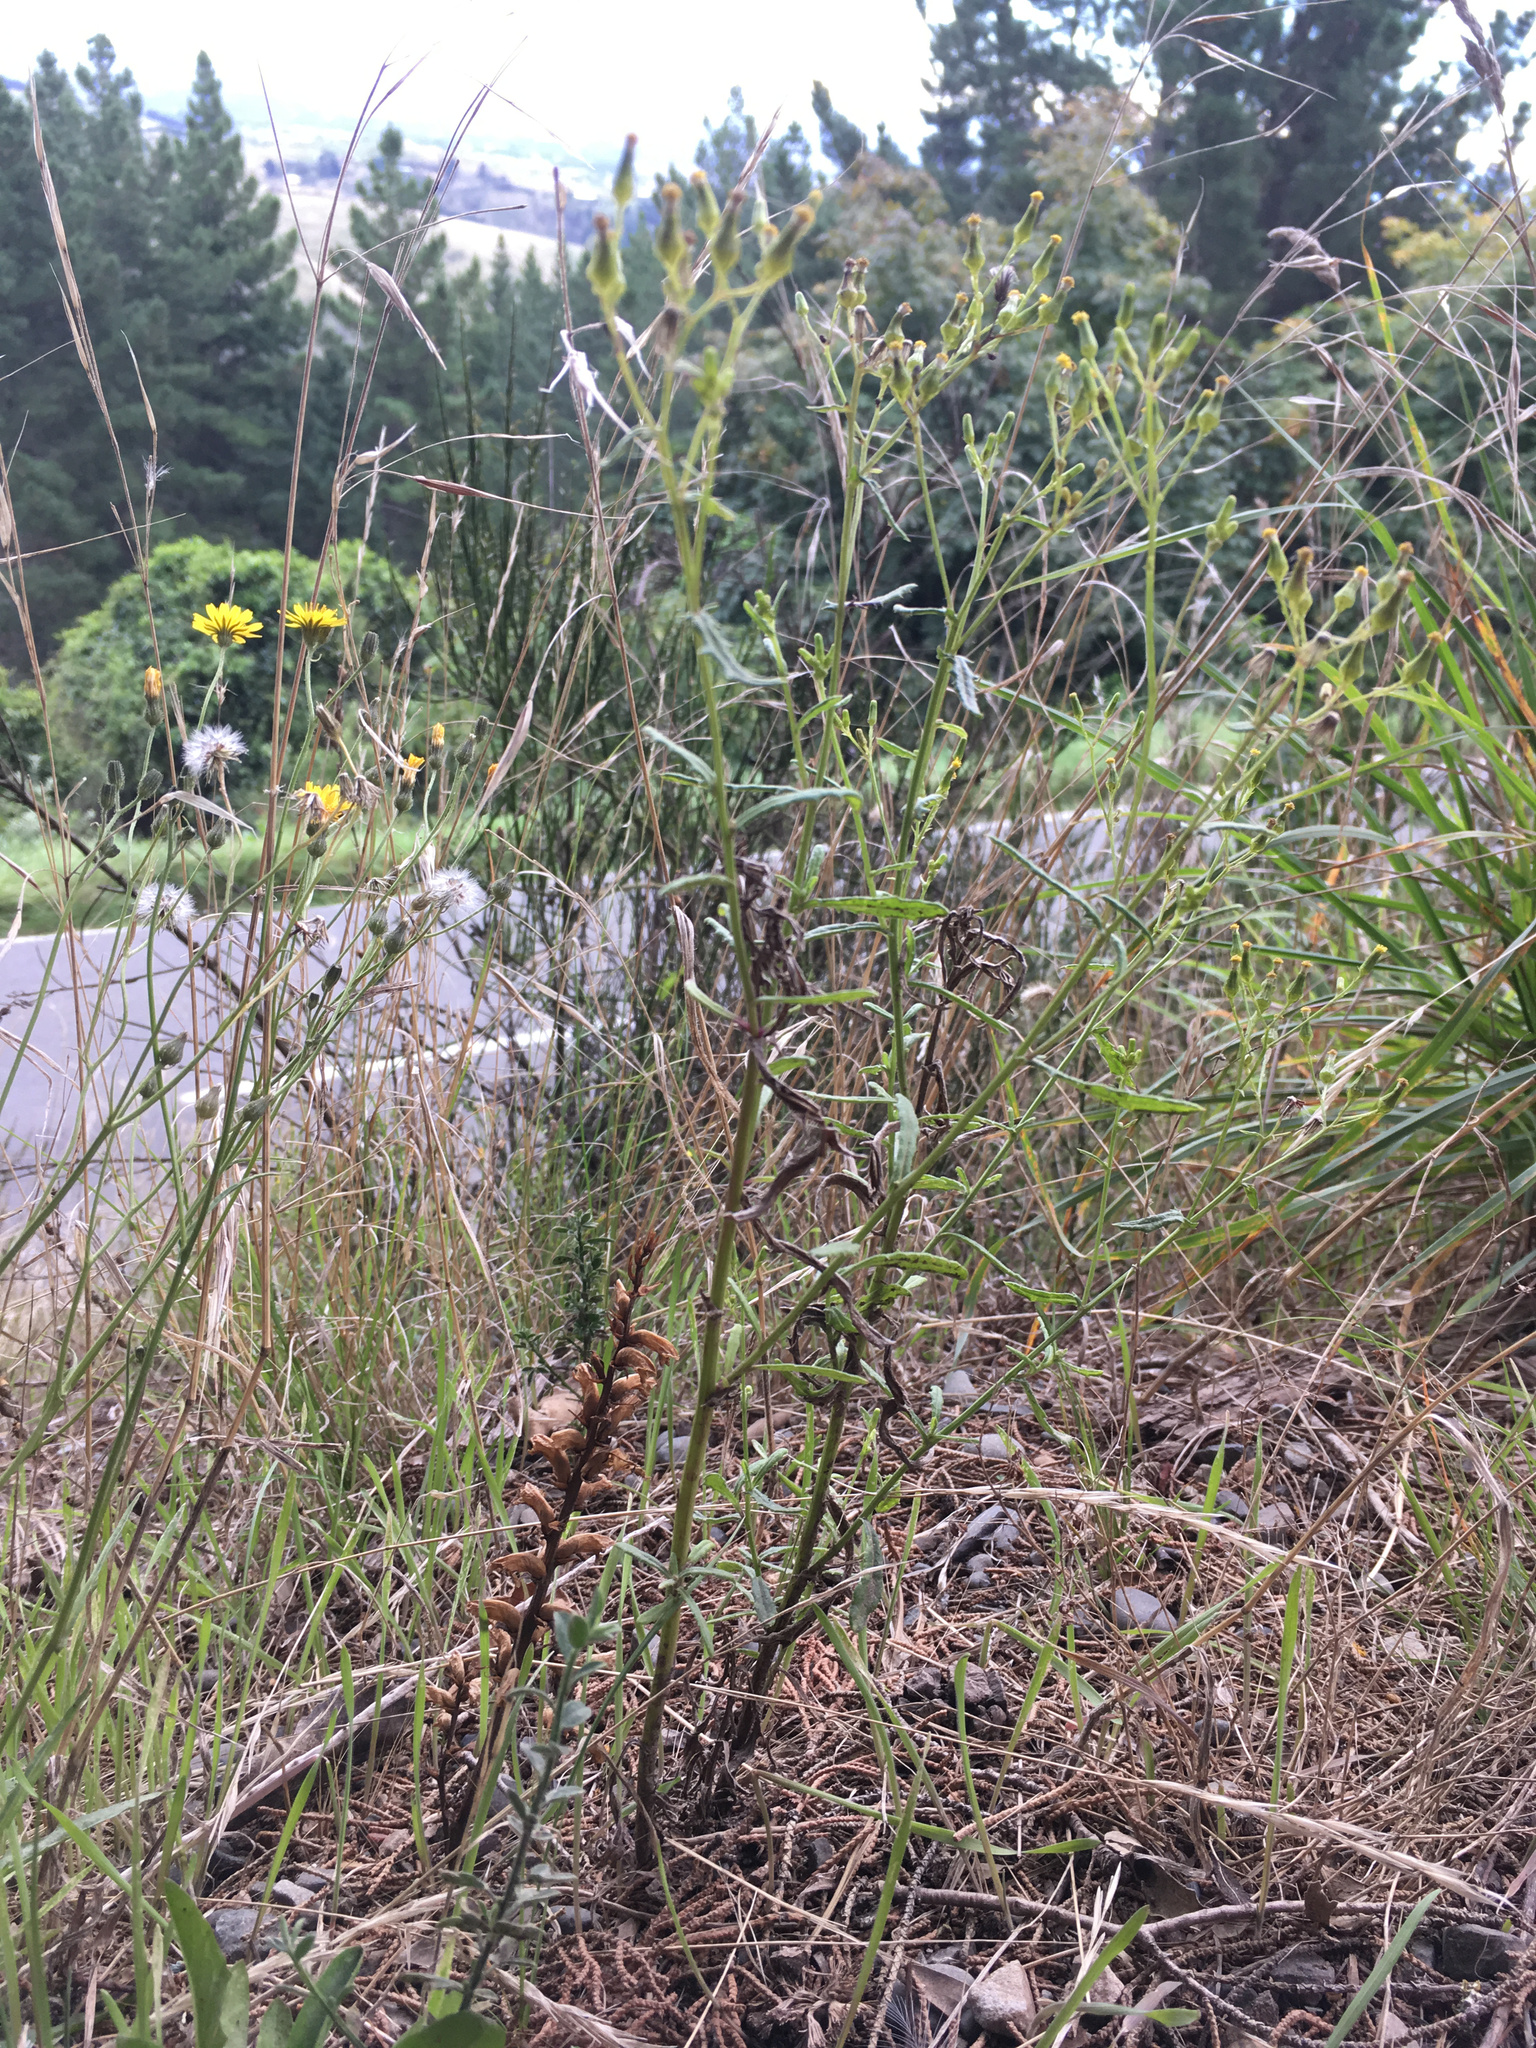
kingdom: Plantae
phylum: Tracheophyta
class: Magnoliopsida
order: Asterales
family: Asteraceae
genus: Senecio
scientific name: Senecio hispidulus
